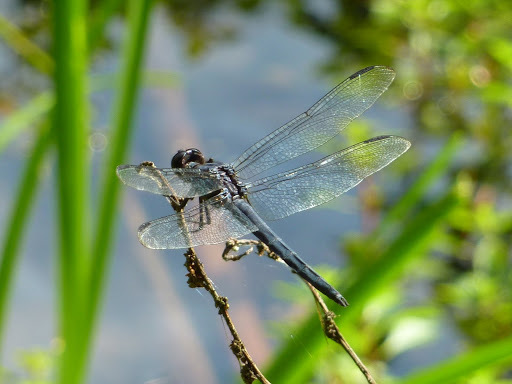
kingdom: Animalia
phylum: Arthropoda
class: Insecta
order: Odonata
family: Libellulidae
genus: Libellula
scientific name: Libellula incesta
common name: Slaty skimmer
